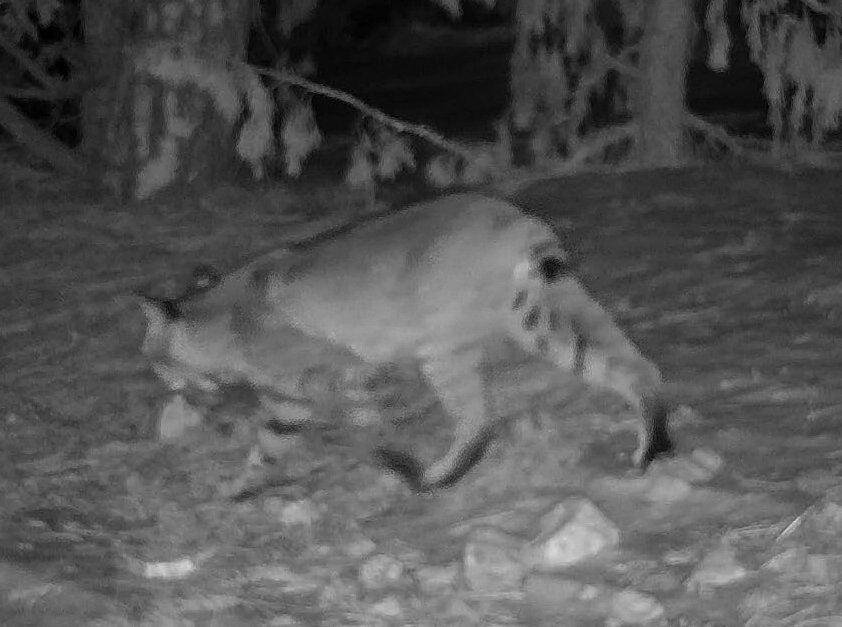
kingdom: Animalia
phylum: Chordata
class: Mammalia
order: Carnivora
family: Felidae
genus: Lynx
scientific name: Lynx rufus
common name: Bobcat
